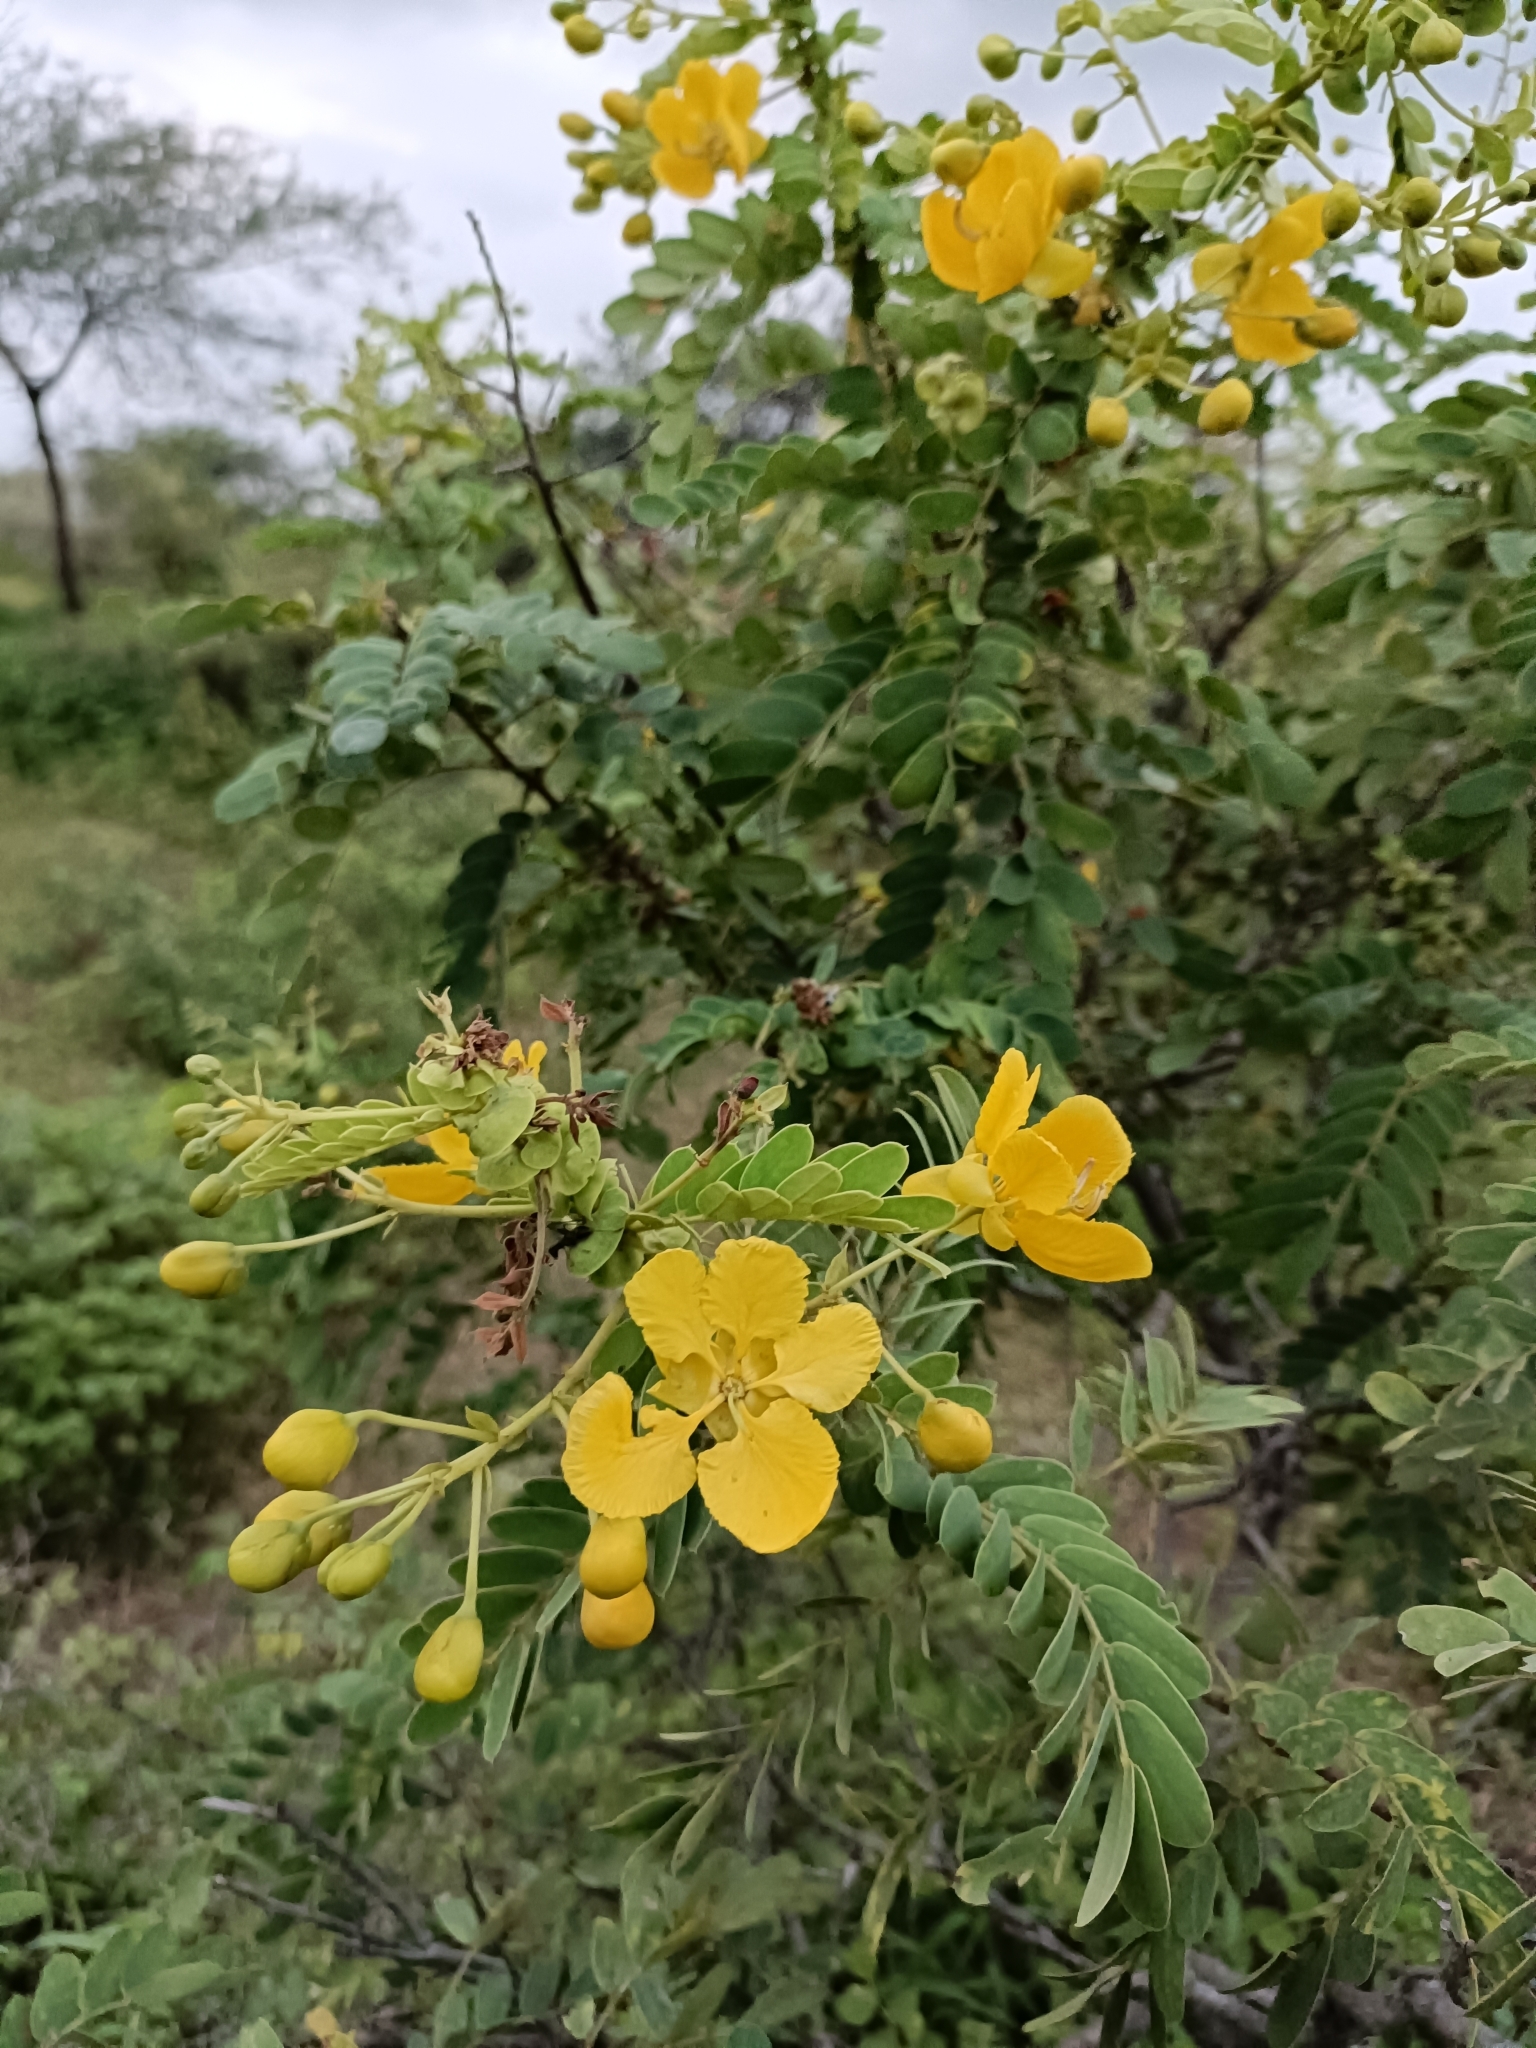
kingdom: Plantae
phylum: Tracheophyta
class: Magnoliopsida
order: Fabales
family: Fabaceae
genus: Senna
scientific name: Senna auriculata
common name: Tanner's cassia
